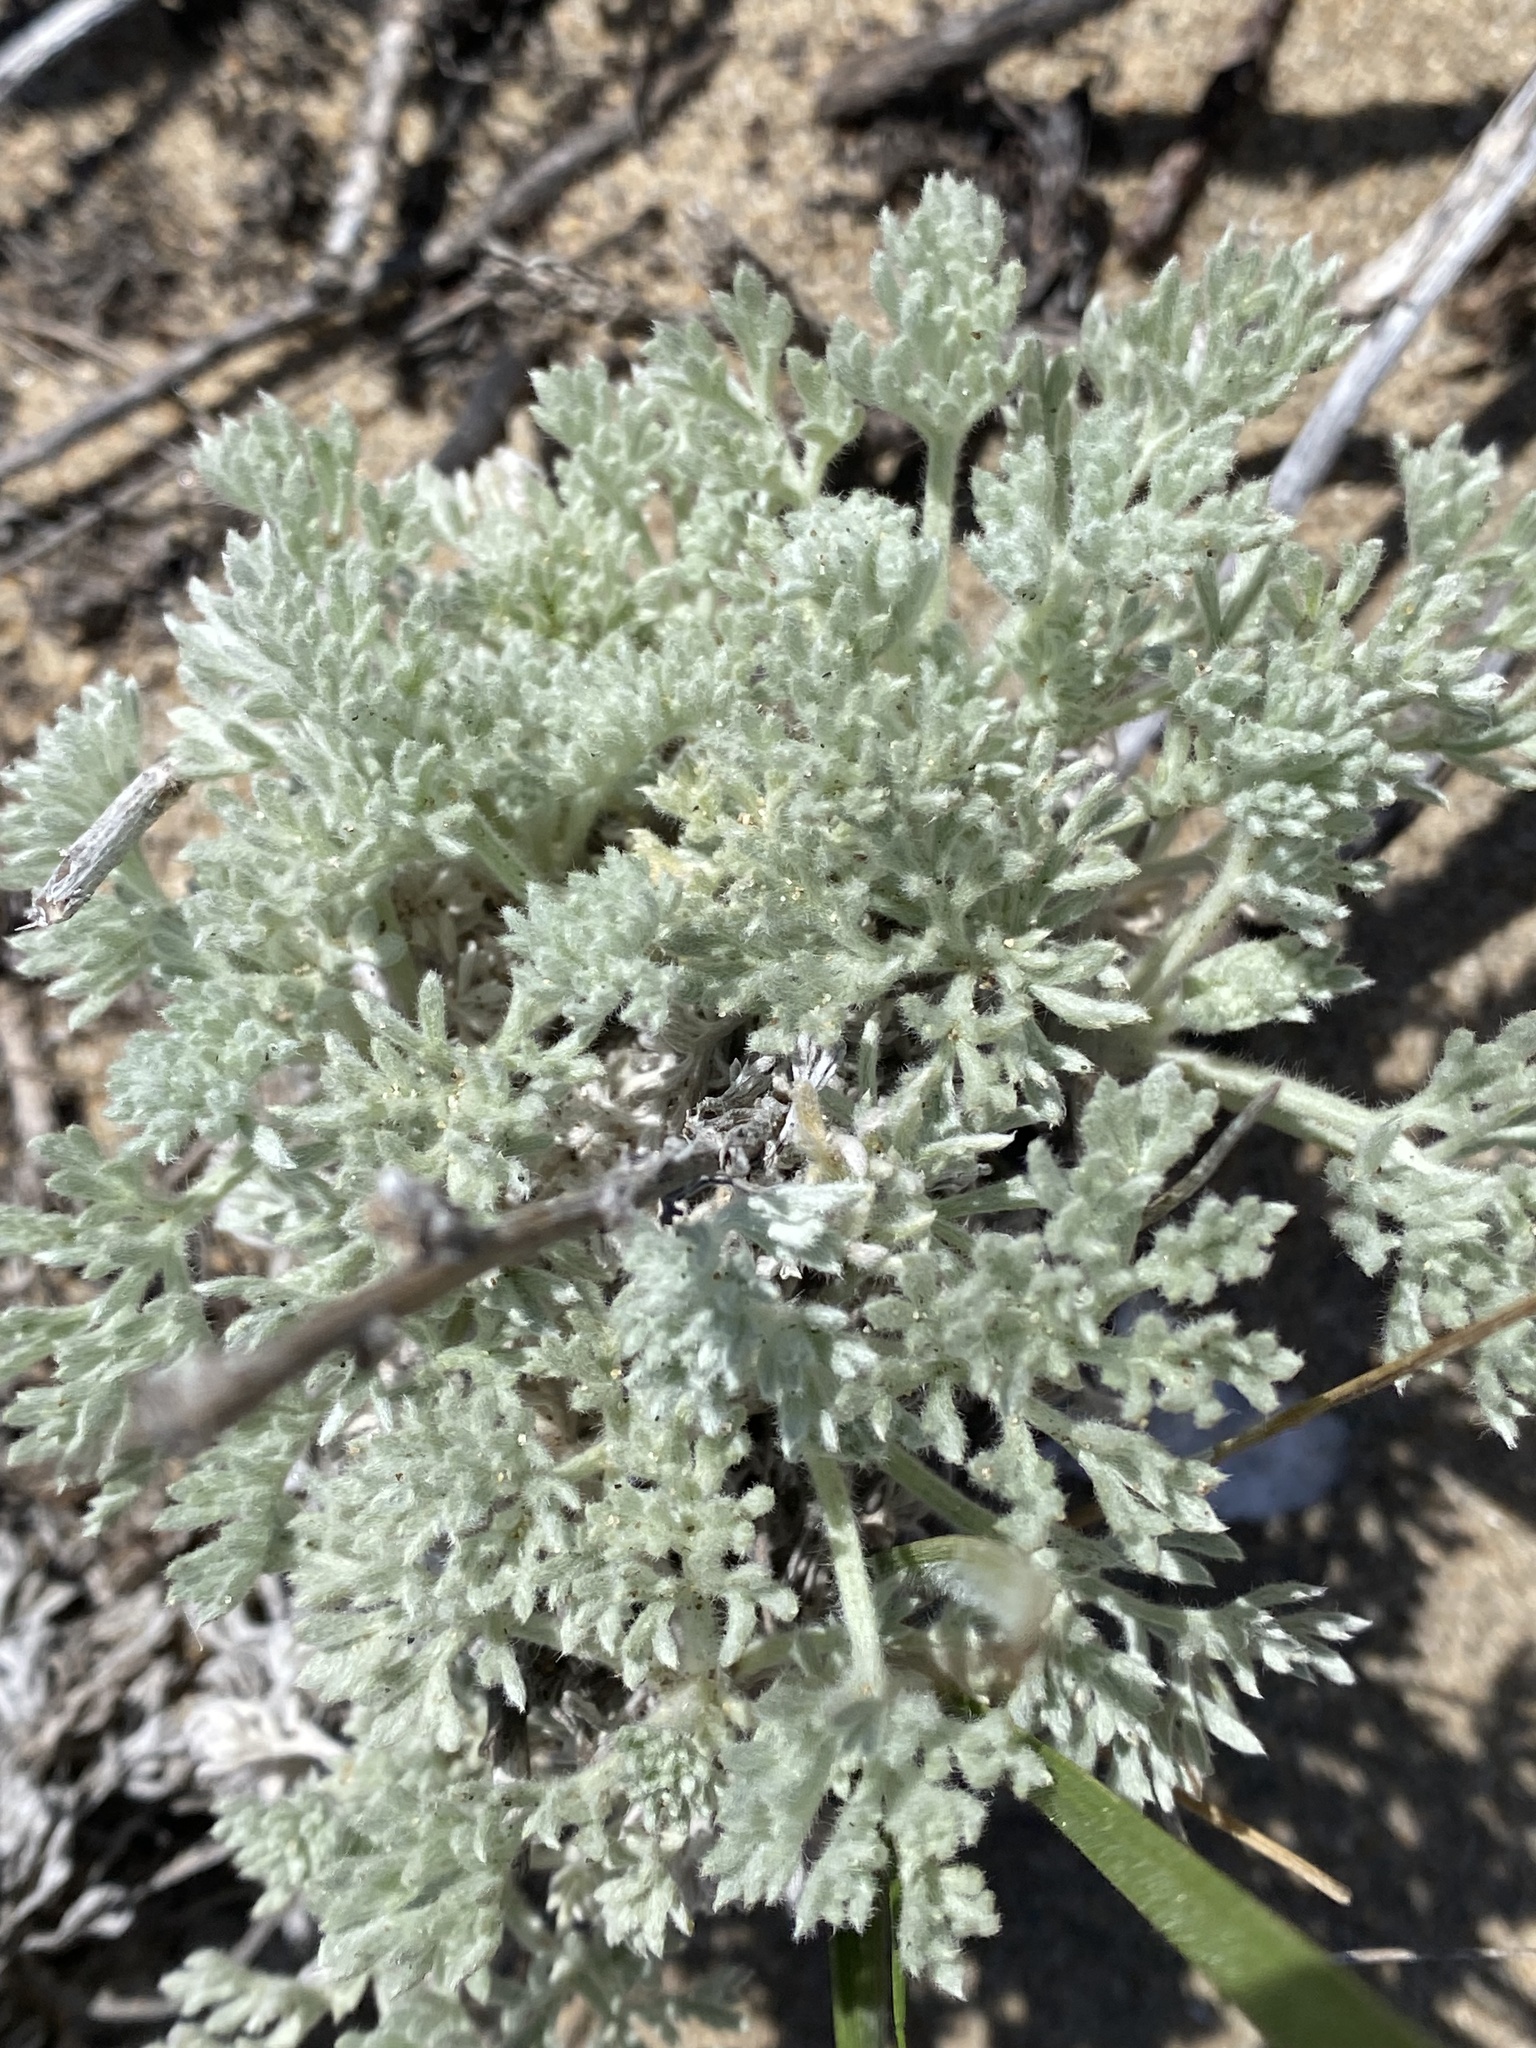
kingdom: Plantae
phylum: Tracheophyta
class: Magnoliopsida
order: Asterales
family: Asteraceae
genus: Artemisia
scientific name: Artemisia pycnocephala
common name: Coastal sagewort
